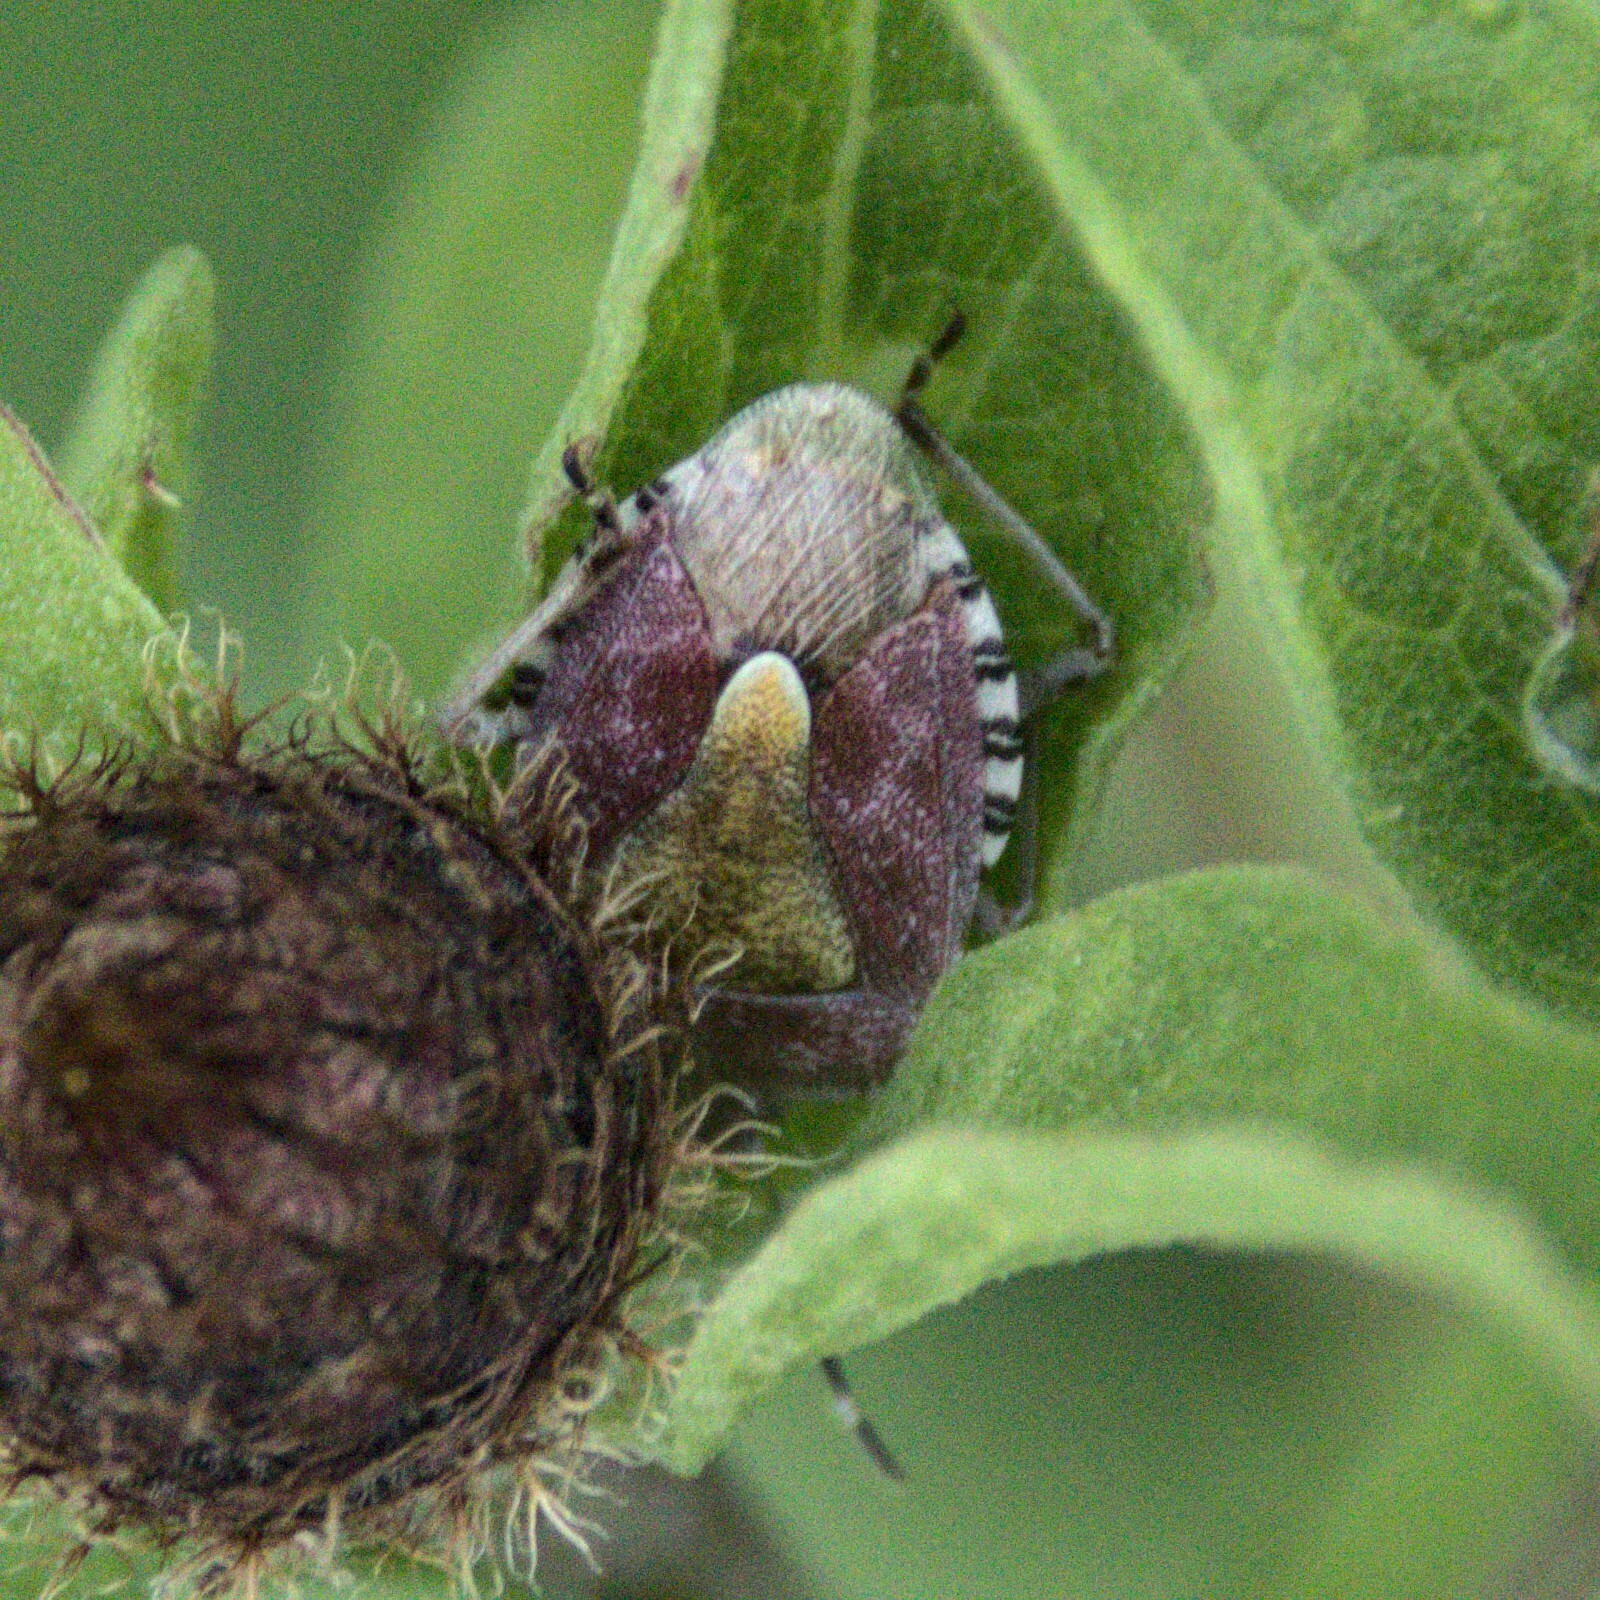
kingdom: Animalia
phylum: Arthropoda
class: Insecta
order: Hemiptera
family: Pentatomidae
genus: Dolycoris
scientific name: Dolycoris baccarum
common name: Sloe bug
